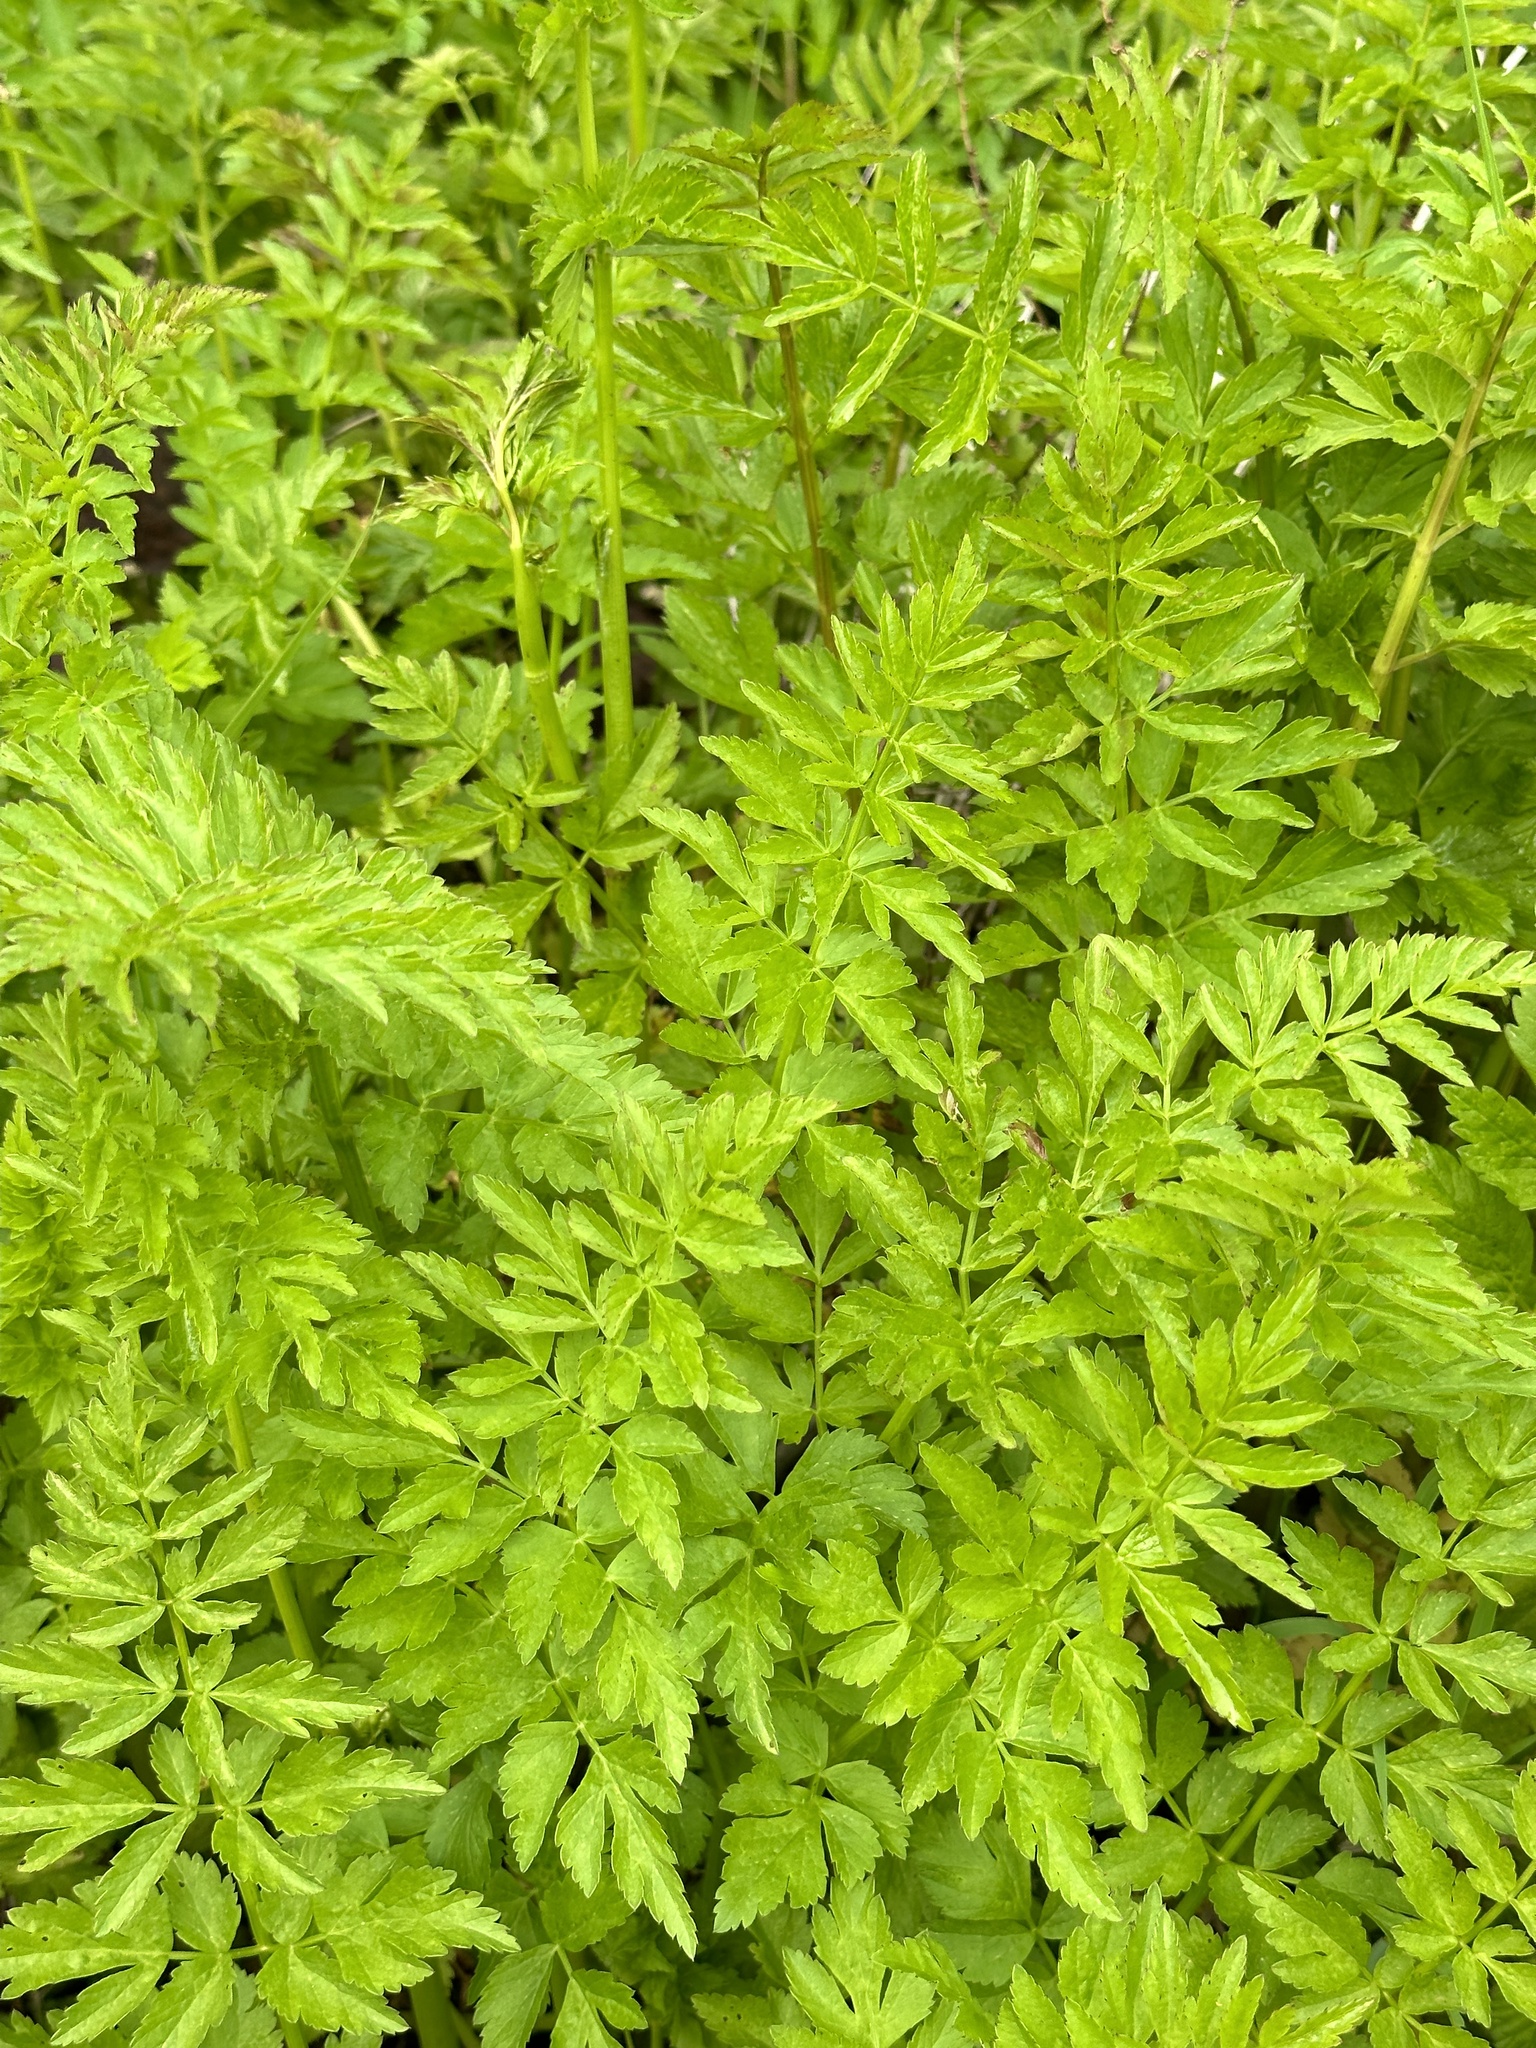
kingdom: Plantae
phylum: Tracheophyta
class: Magnoliopsida
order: Apiales
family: Apiaceae
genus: Oenanthe
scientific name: Oenanthe sarmentosa
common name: American water-parsley
